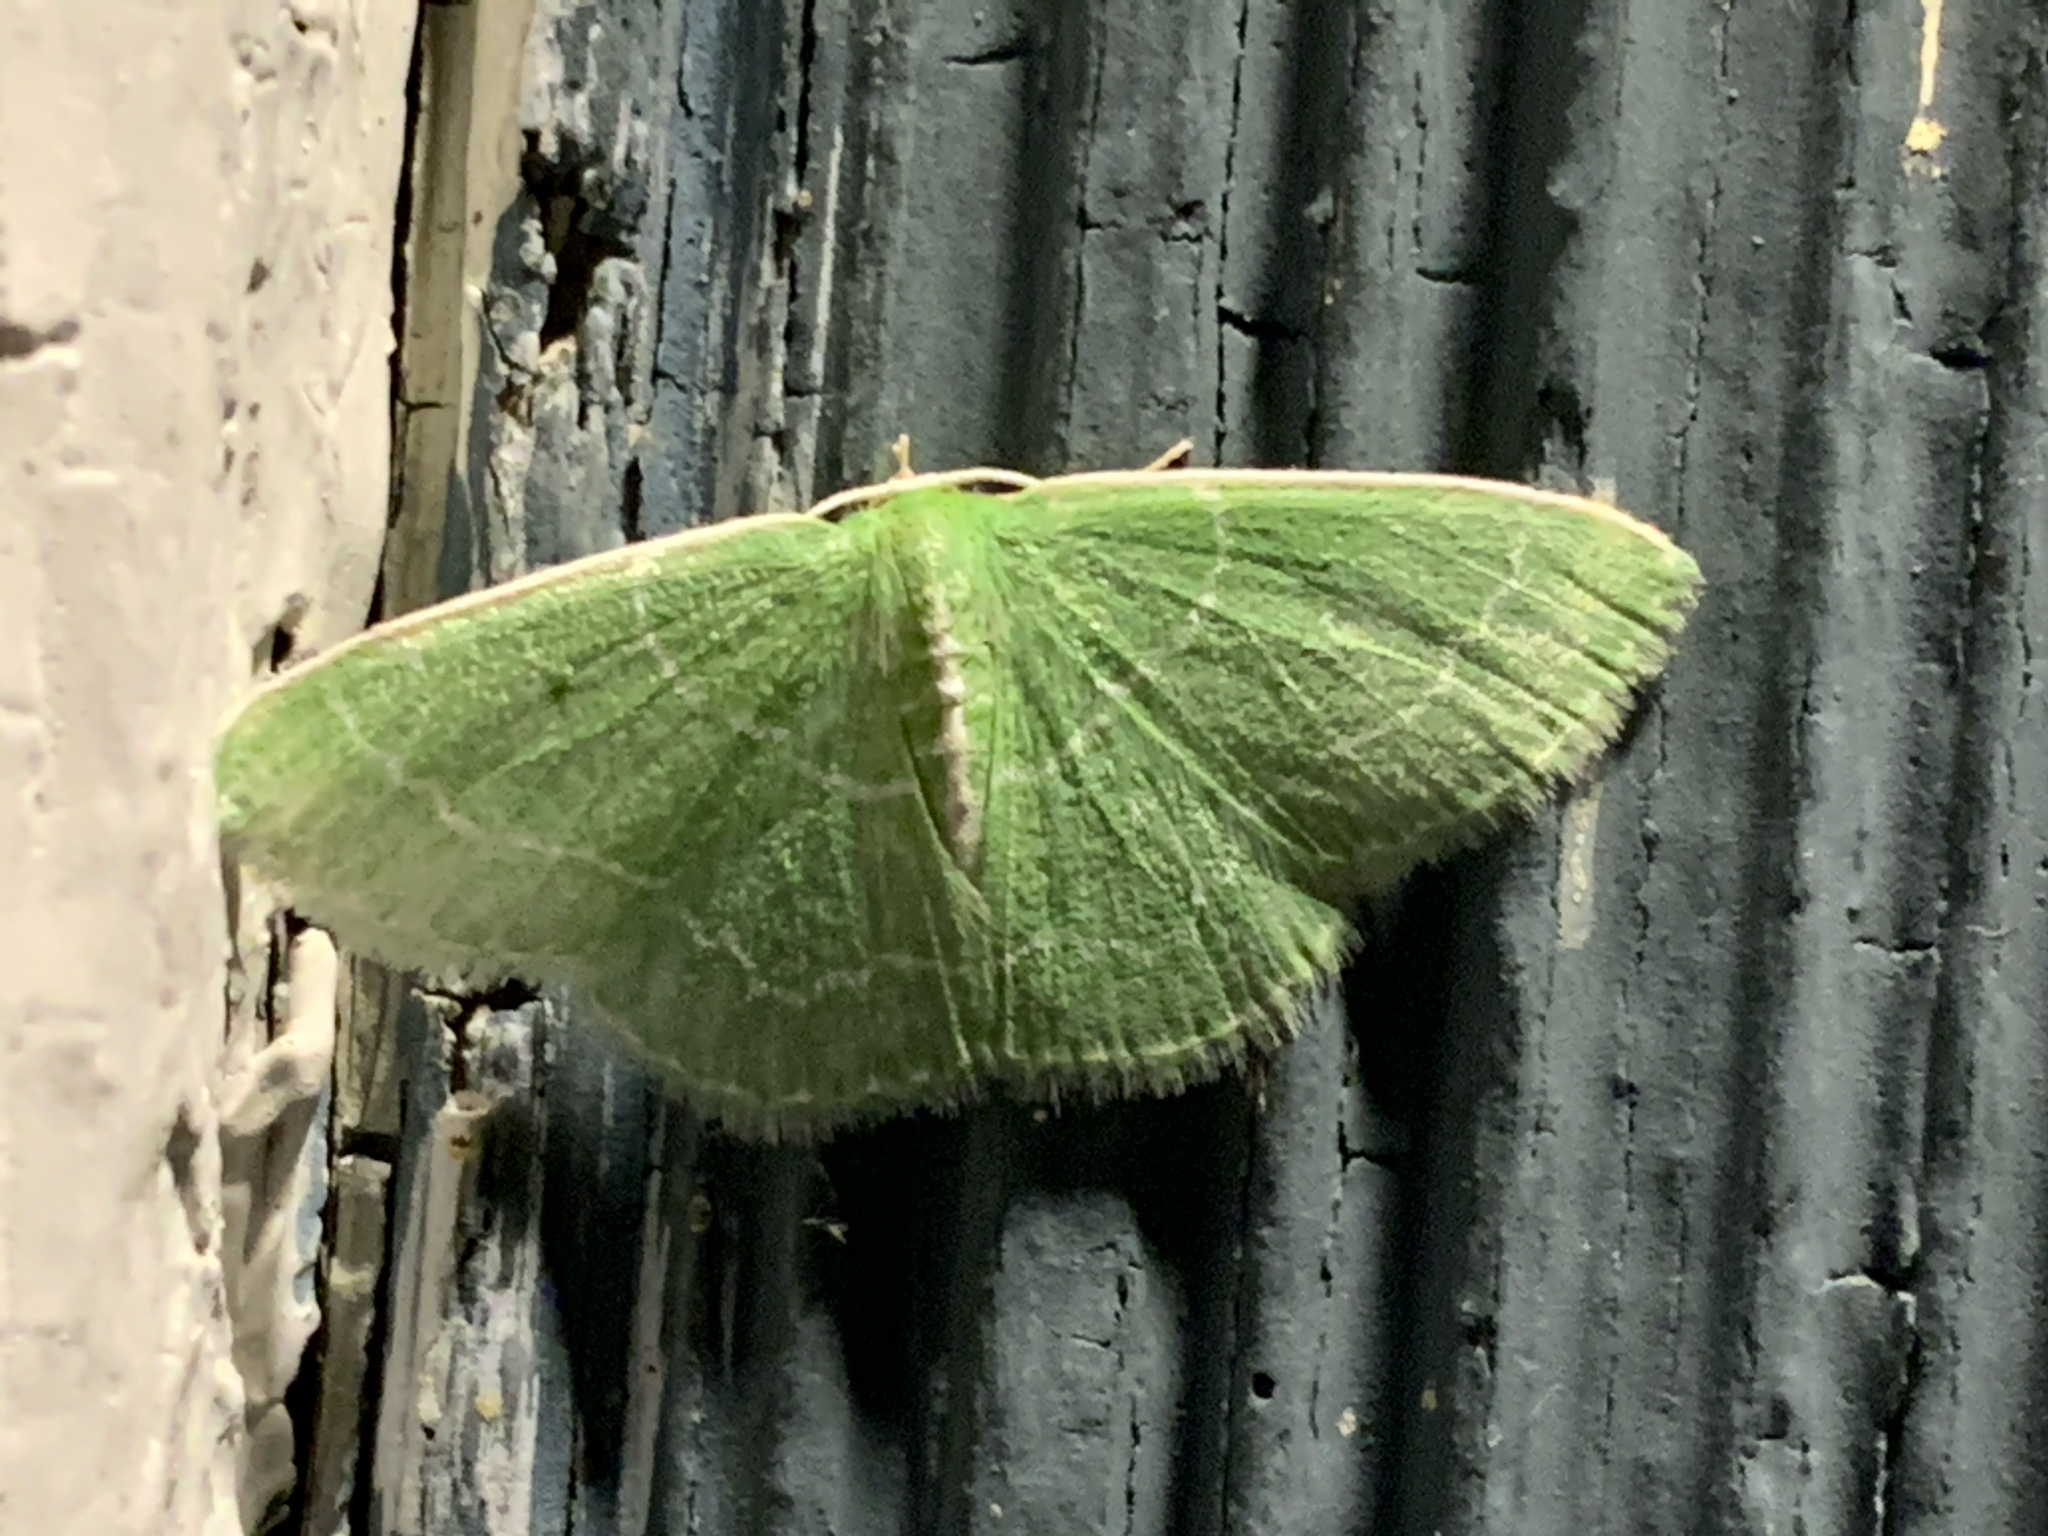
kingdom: Animalia
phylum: Arthropoda
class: Insecta
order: Lepidoptera
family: Geometridae
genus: Synchlora
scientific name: Synchlora aerata
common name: Wavy-lined emerald
